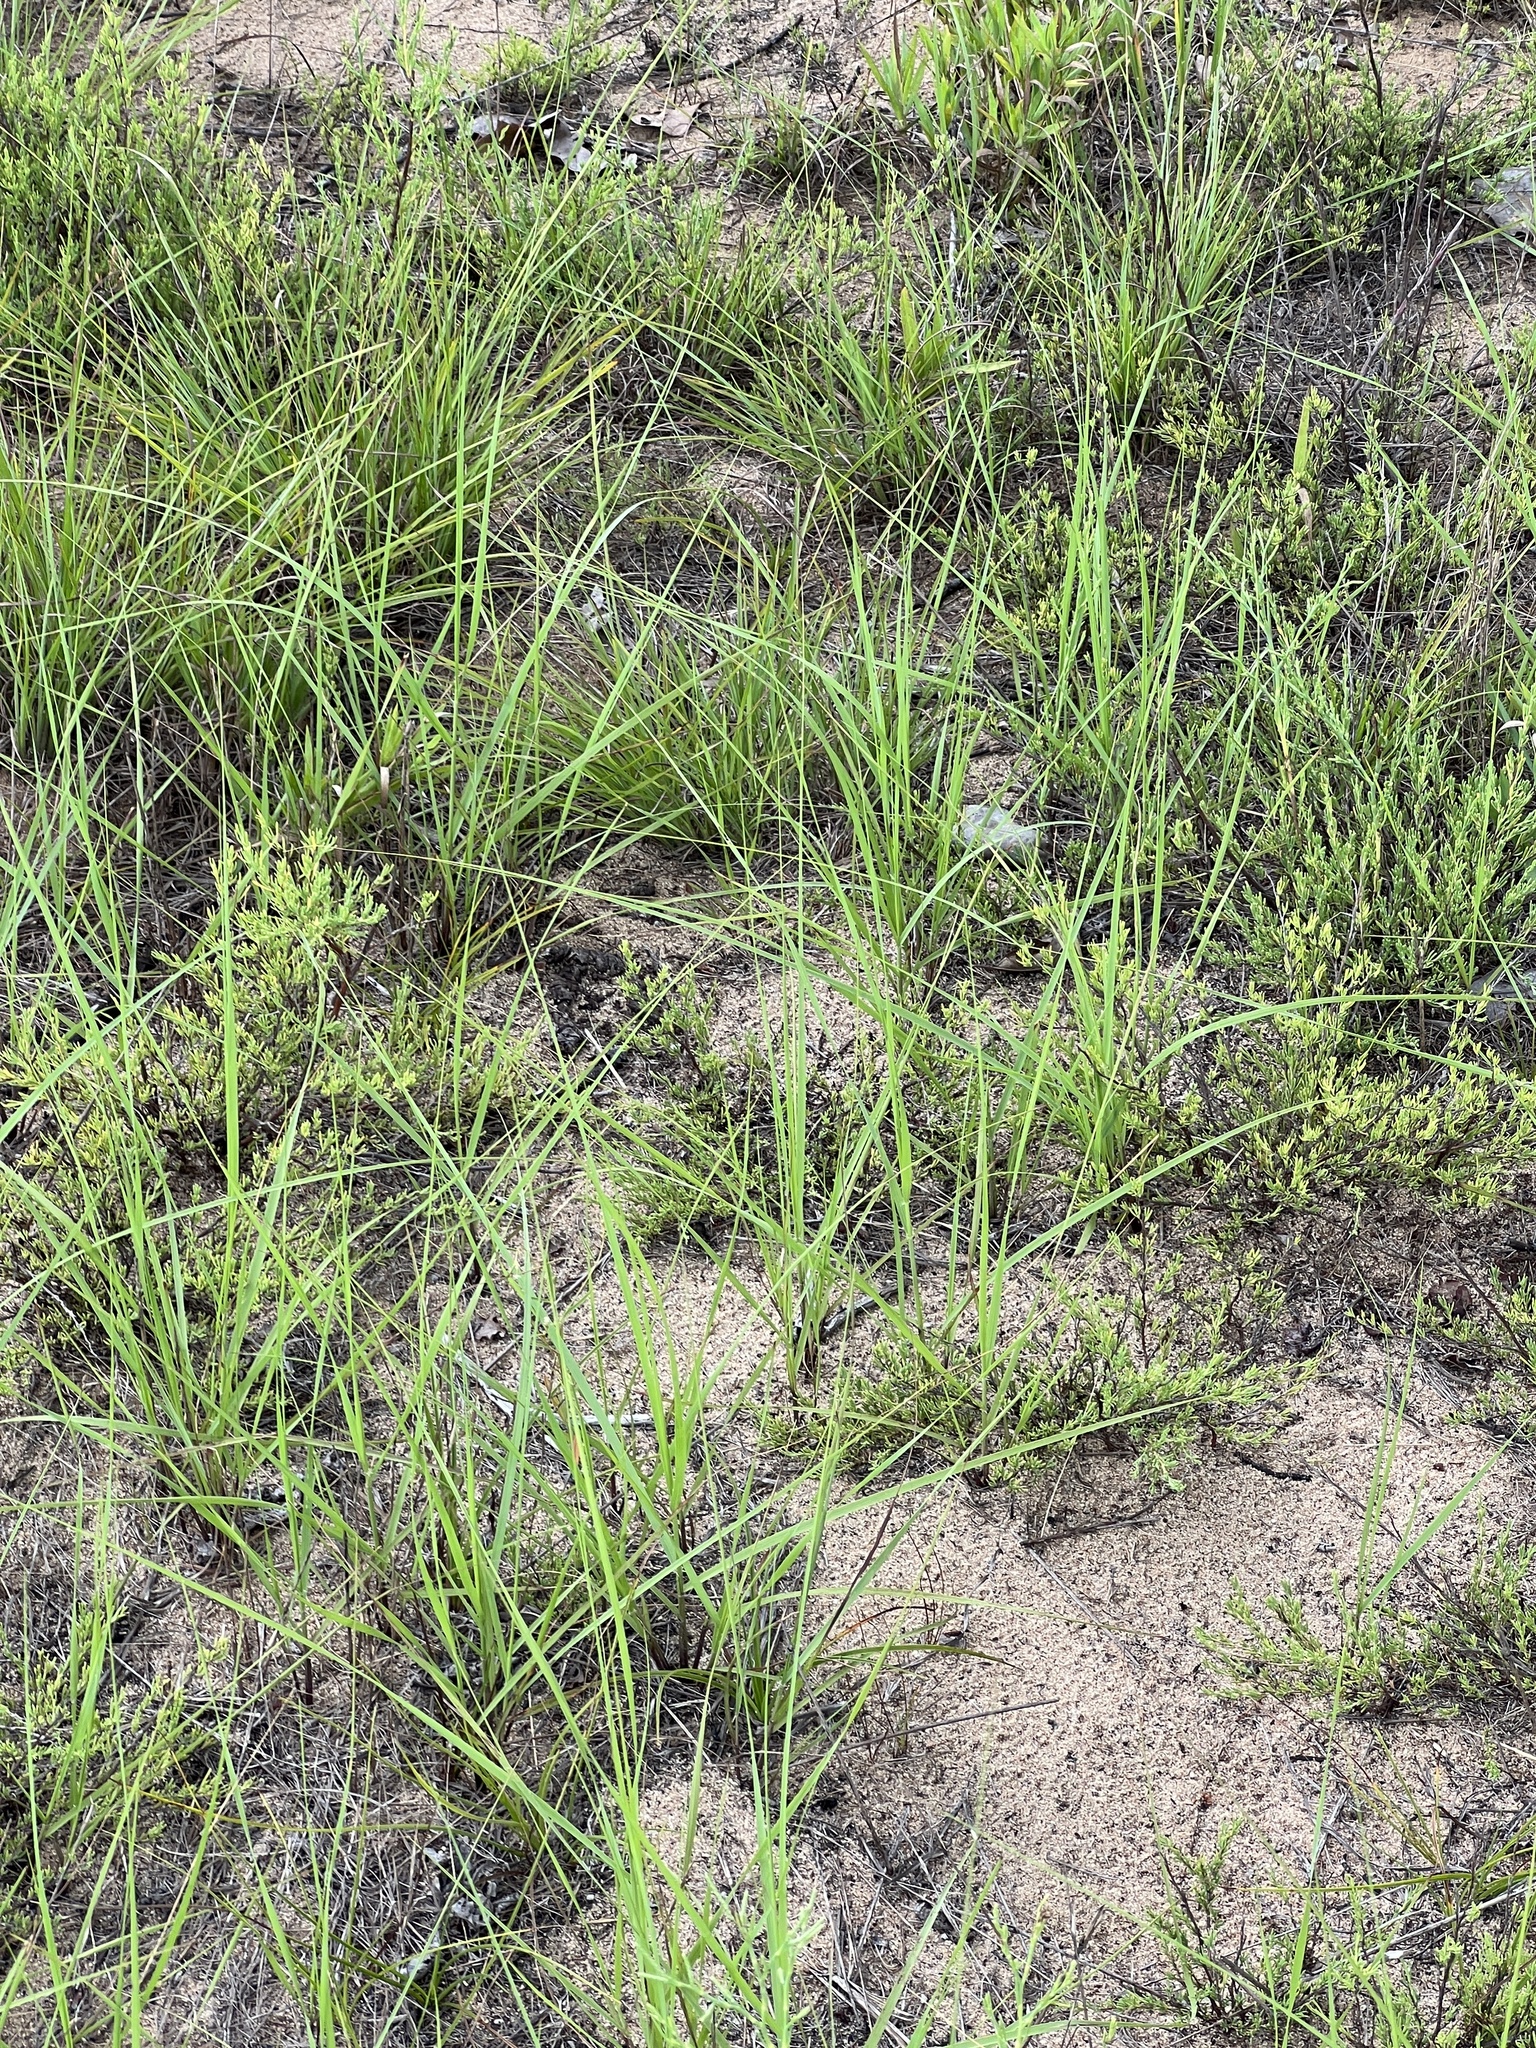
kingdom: Plantae
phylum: Tracheophyta
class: Liliopsida
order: Poales
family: Poaceae
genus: Sporobolus
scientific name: Sporobolus cryptandrus
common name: Sand dropseed
